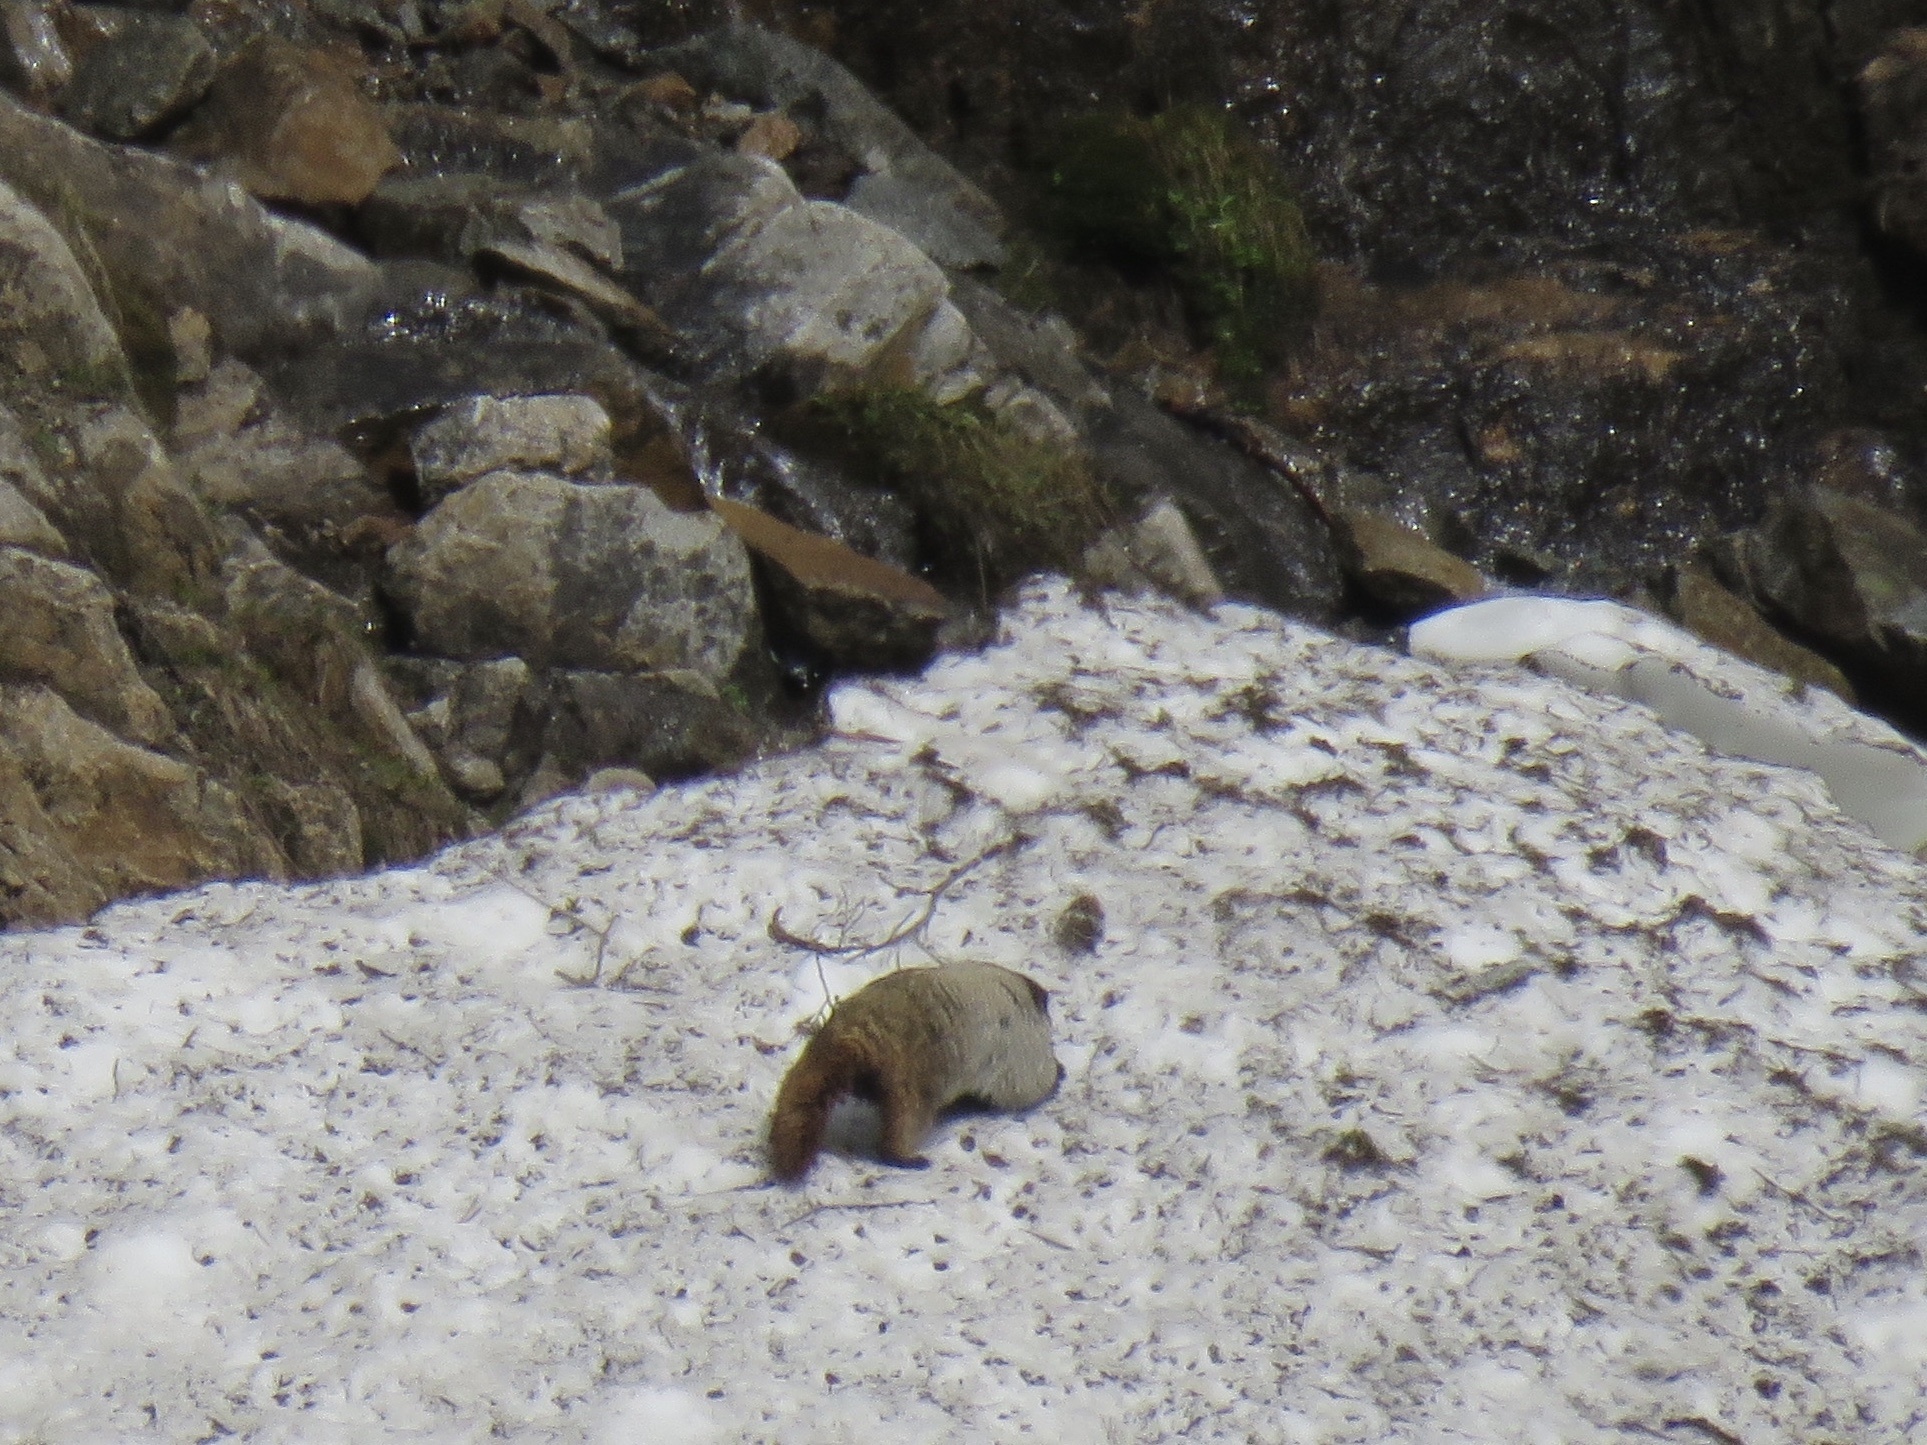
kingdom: Animalia
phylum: Chordata
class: Mammalia
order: Rodentia
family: Sciuridae
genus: Marmota
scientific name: Marmota caligata
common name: Hoary marmot
